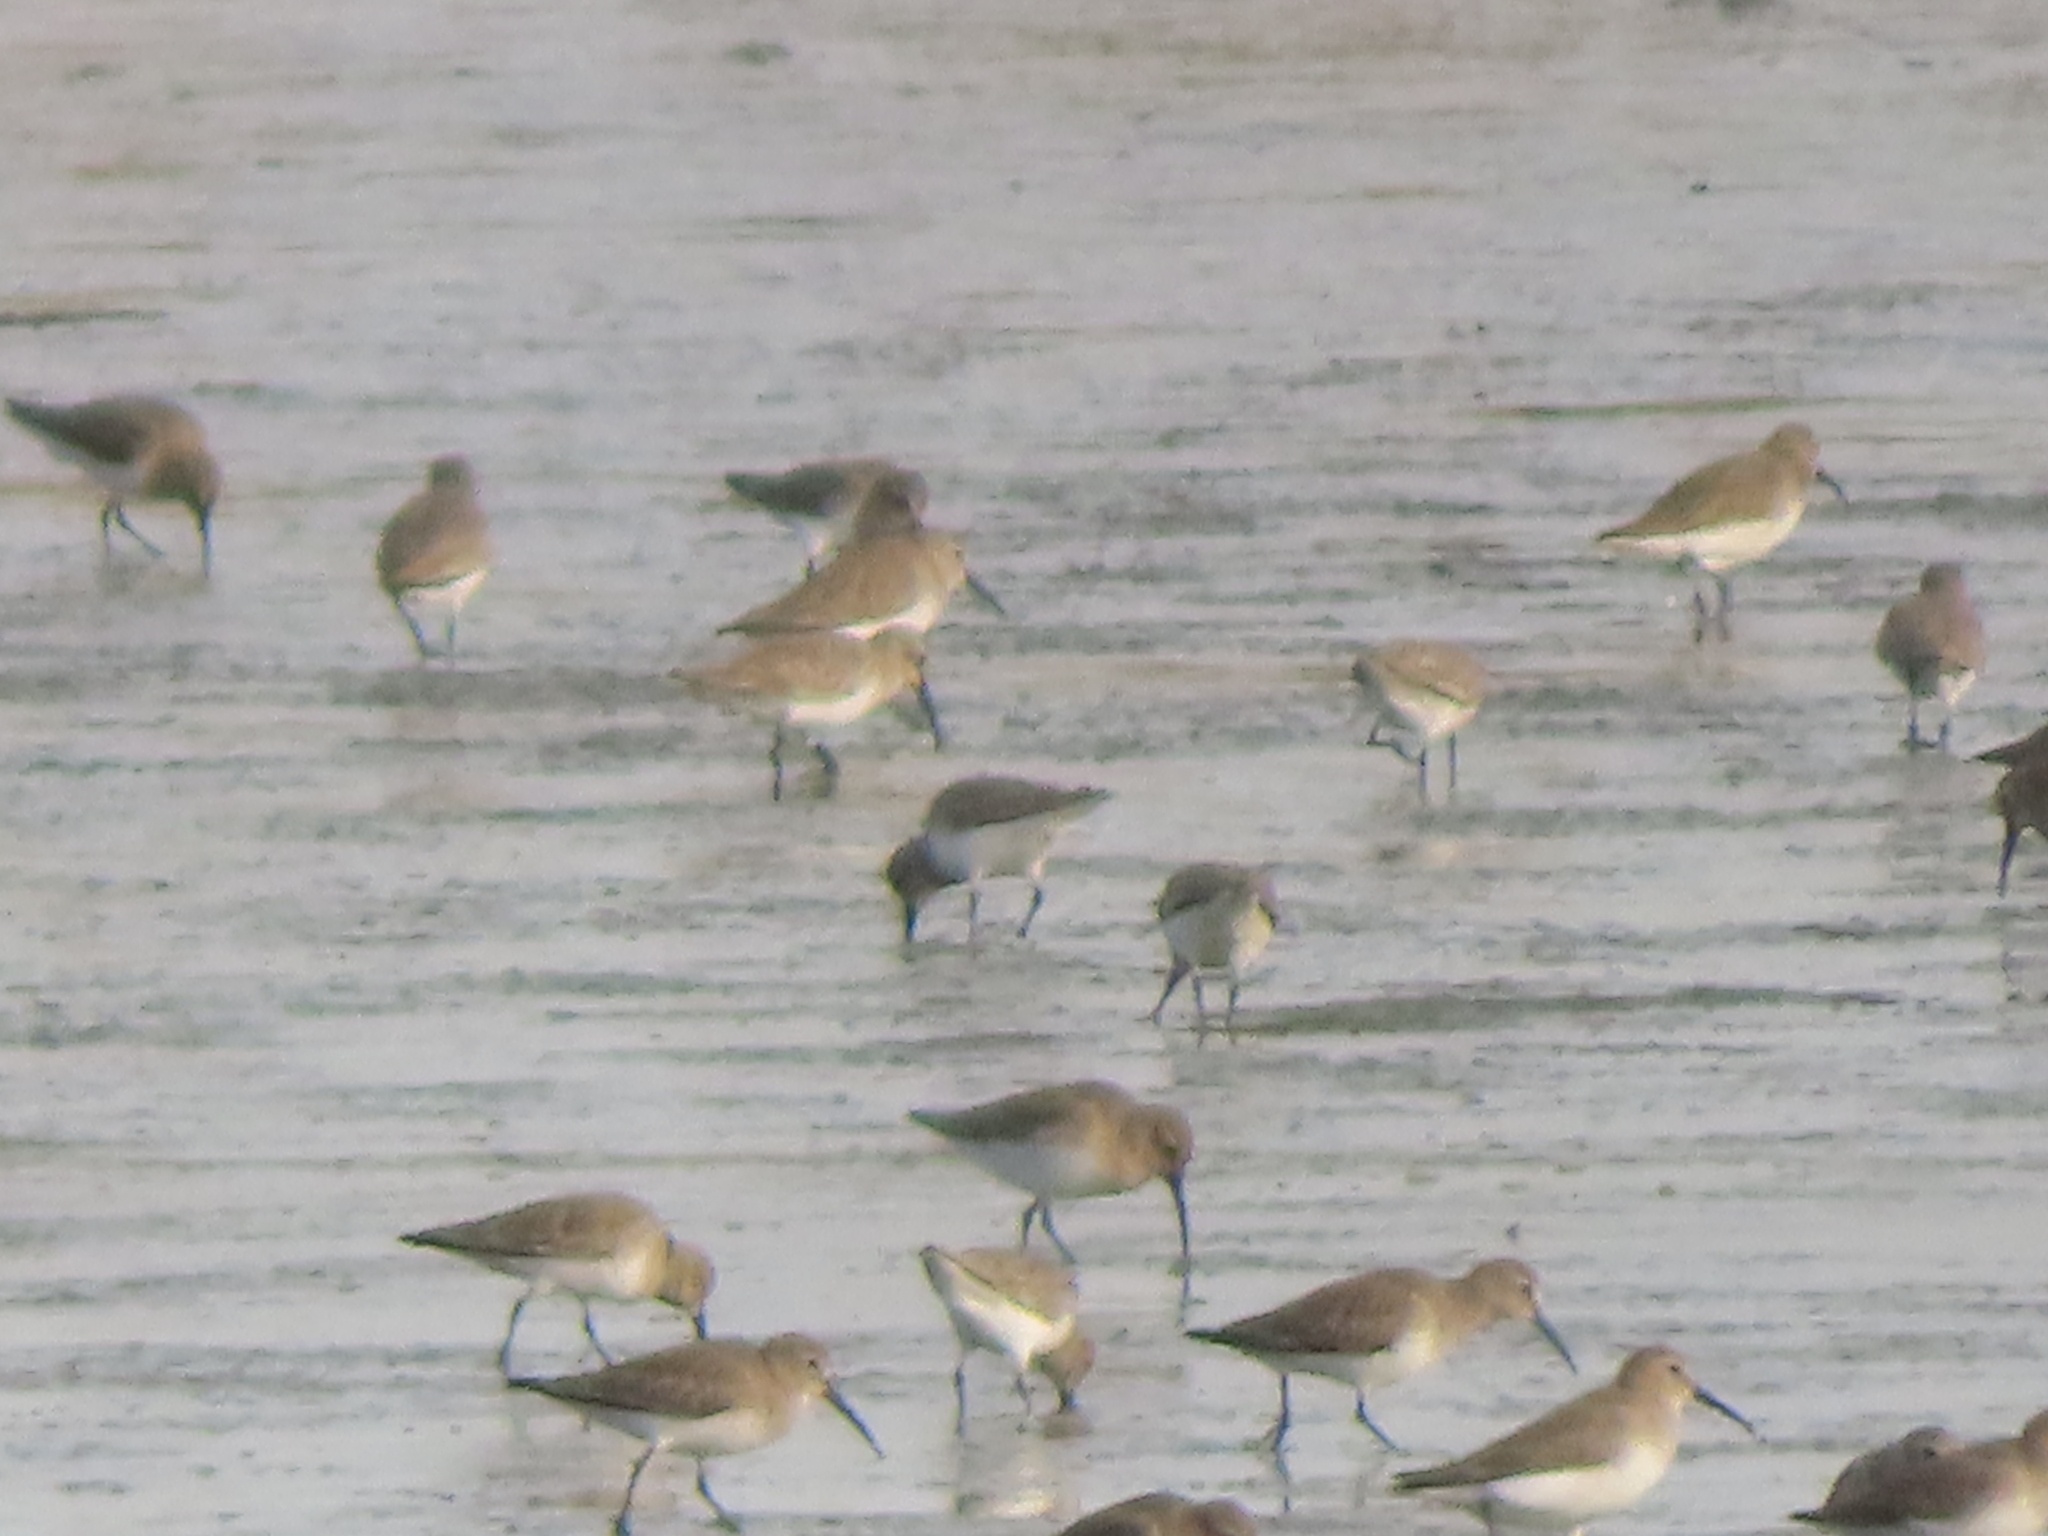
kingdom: Animalia
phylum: Chordata
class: Aves
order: Charadriiformes
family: Scolopacidae
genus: Calidris
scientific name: Calidris alpina
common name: Dunlin
